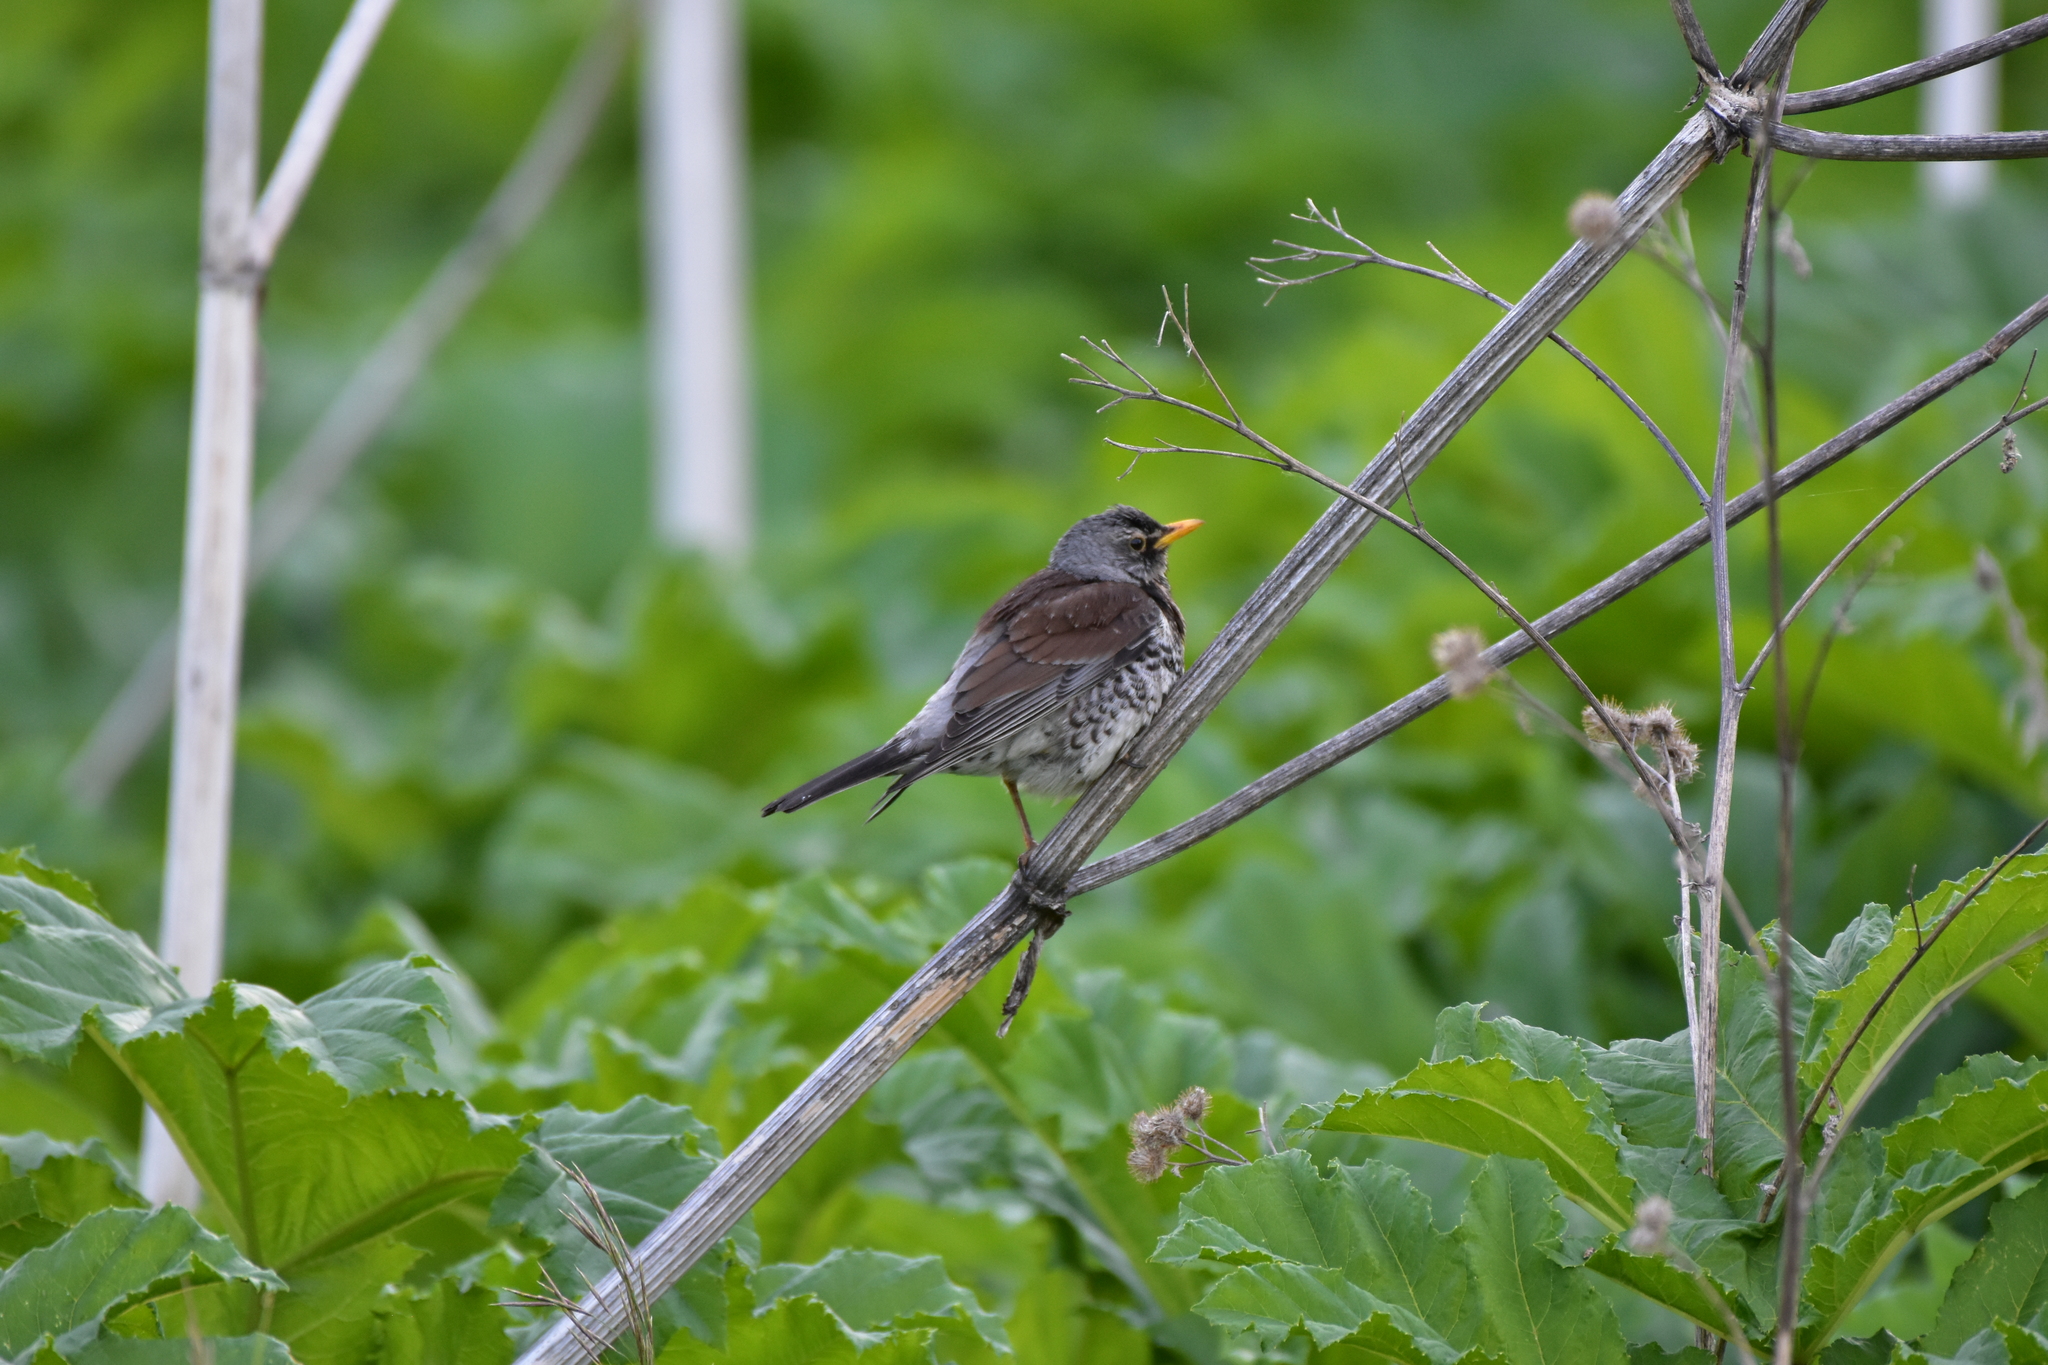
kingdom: Animalia
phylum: Chordata
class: Aves
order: Passeriformes
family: Turdidae
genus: Turdus
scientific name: Turdus pilaris
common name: Fieldfare
